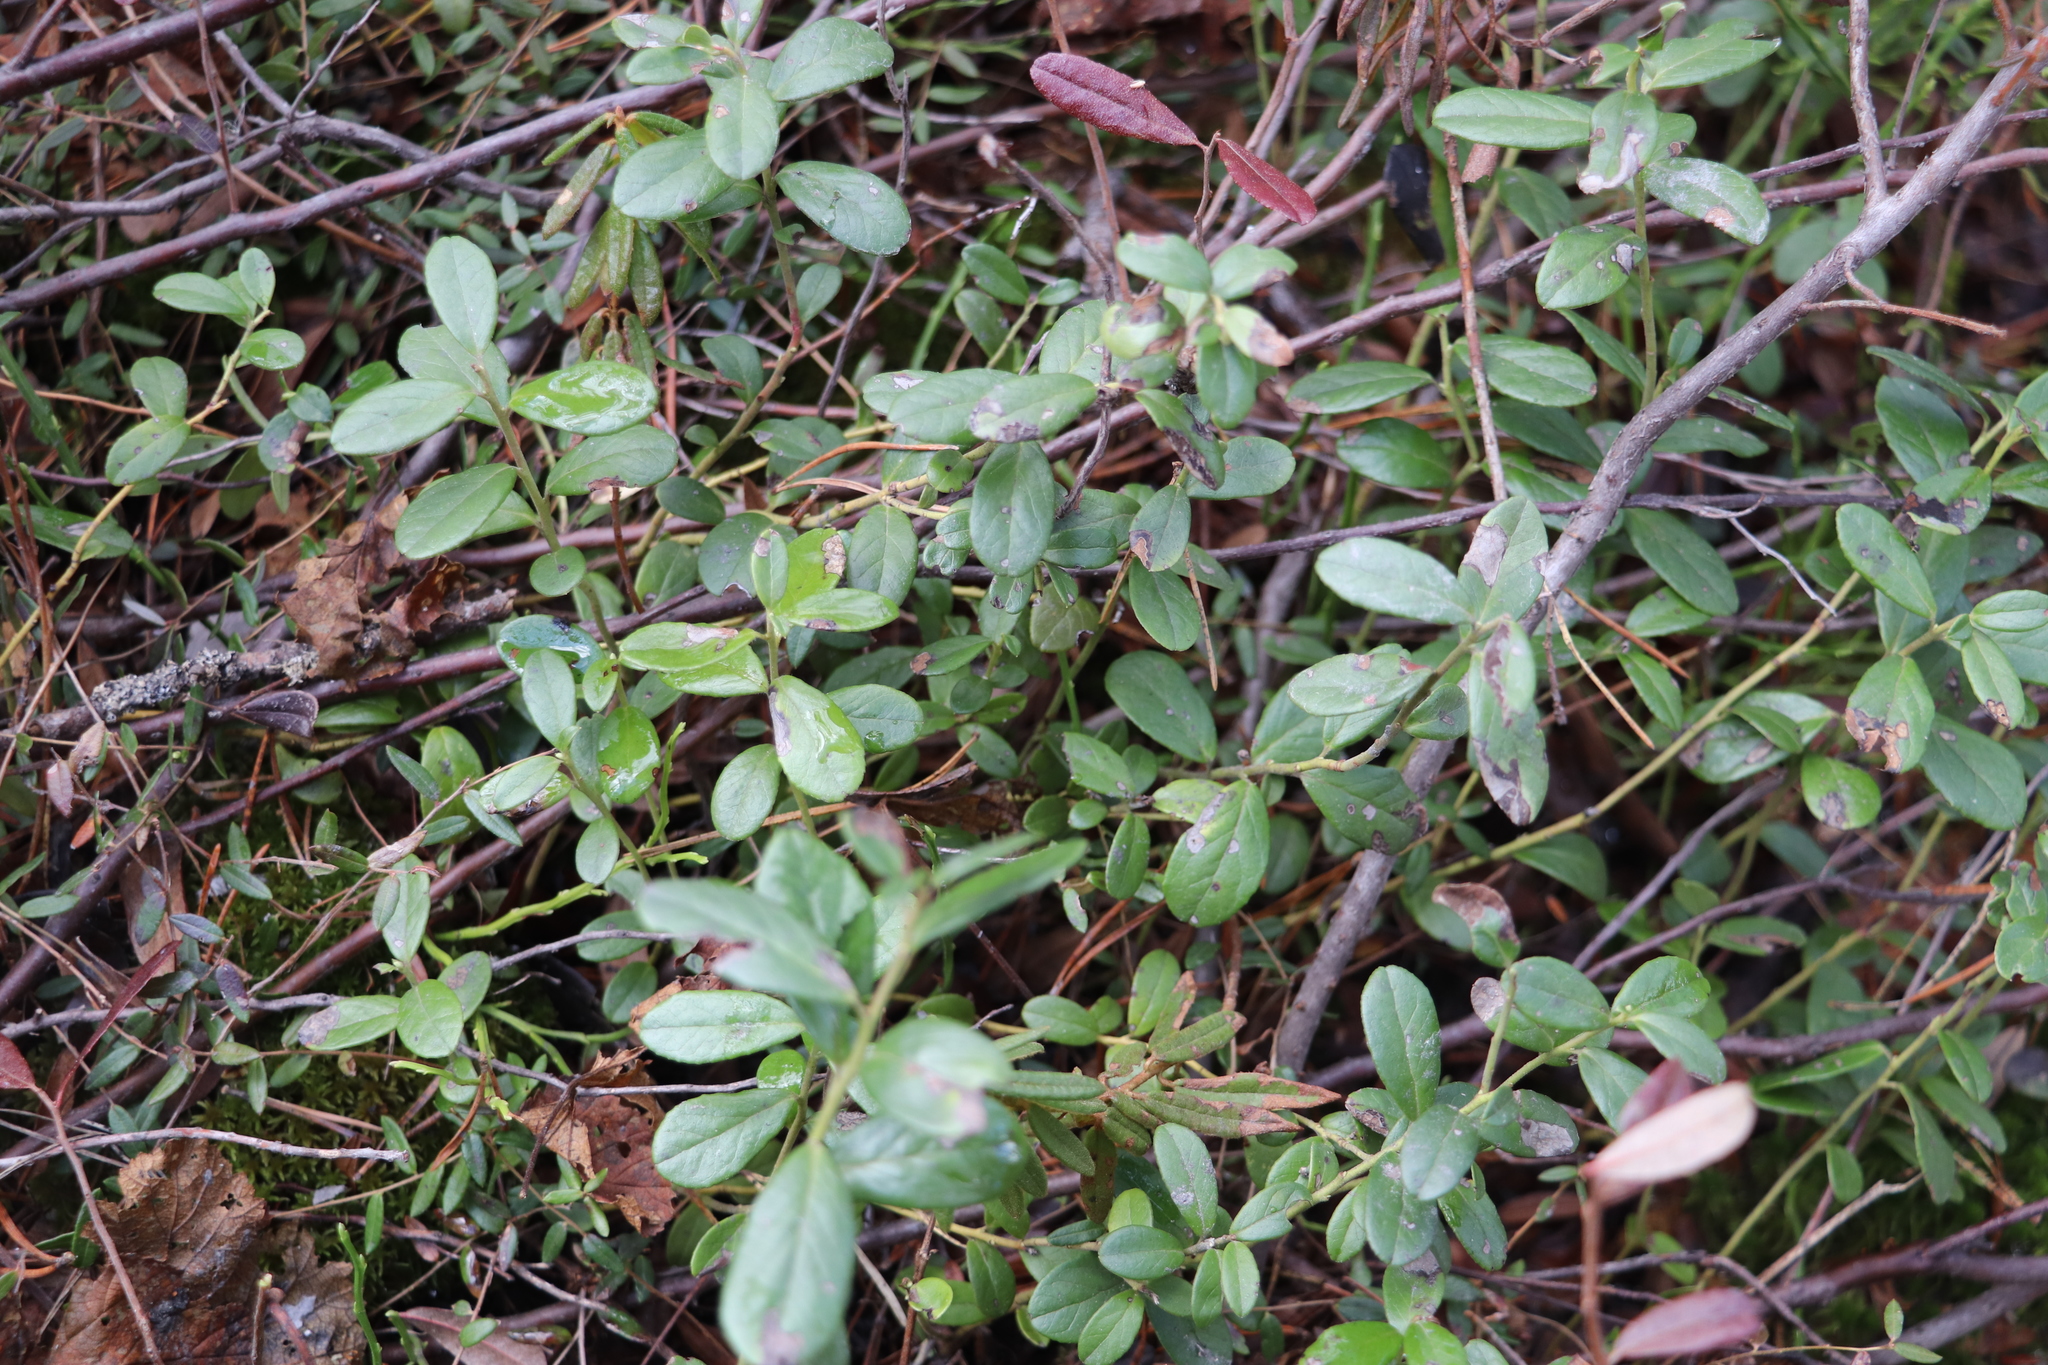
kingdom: Plantae
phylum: Tracheophyta
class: Magnoliopsida
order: Ericales
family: Ericaceae
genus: Vaccinium
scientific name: Vaccinium vitis-idaea
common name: Cowberry
